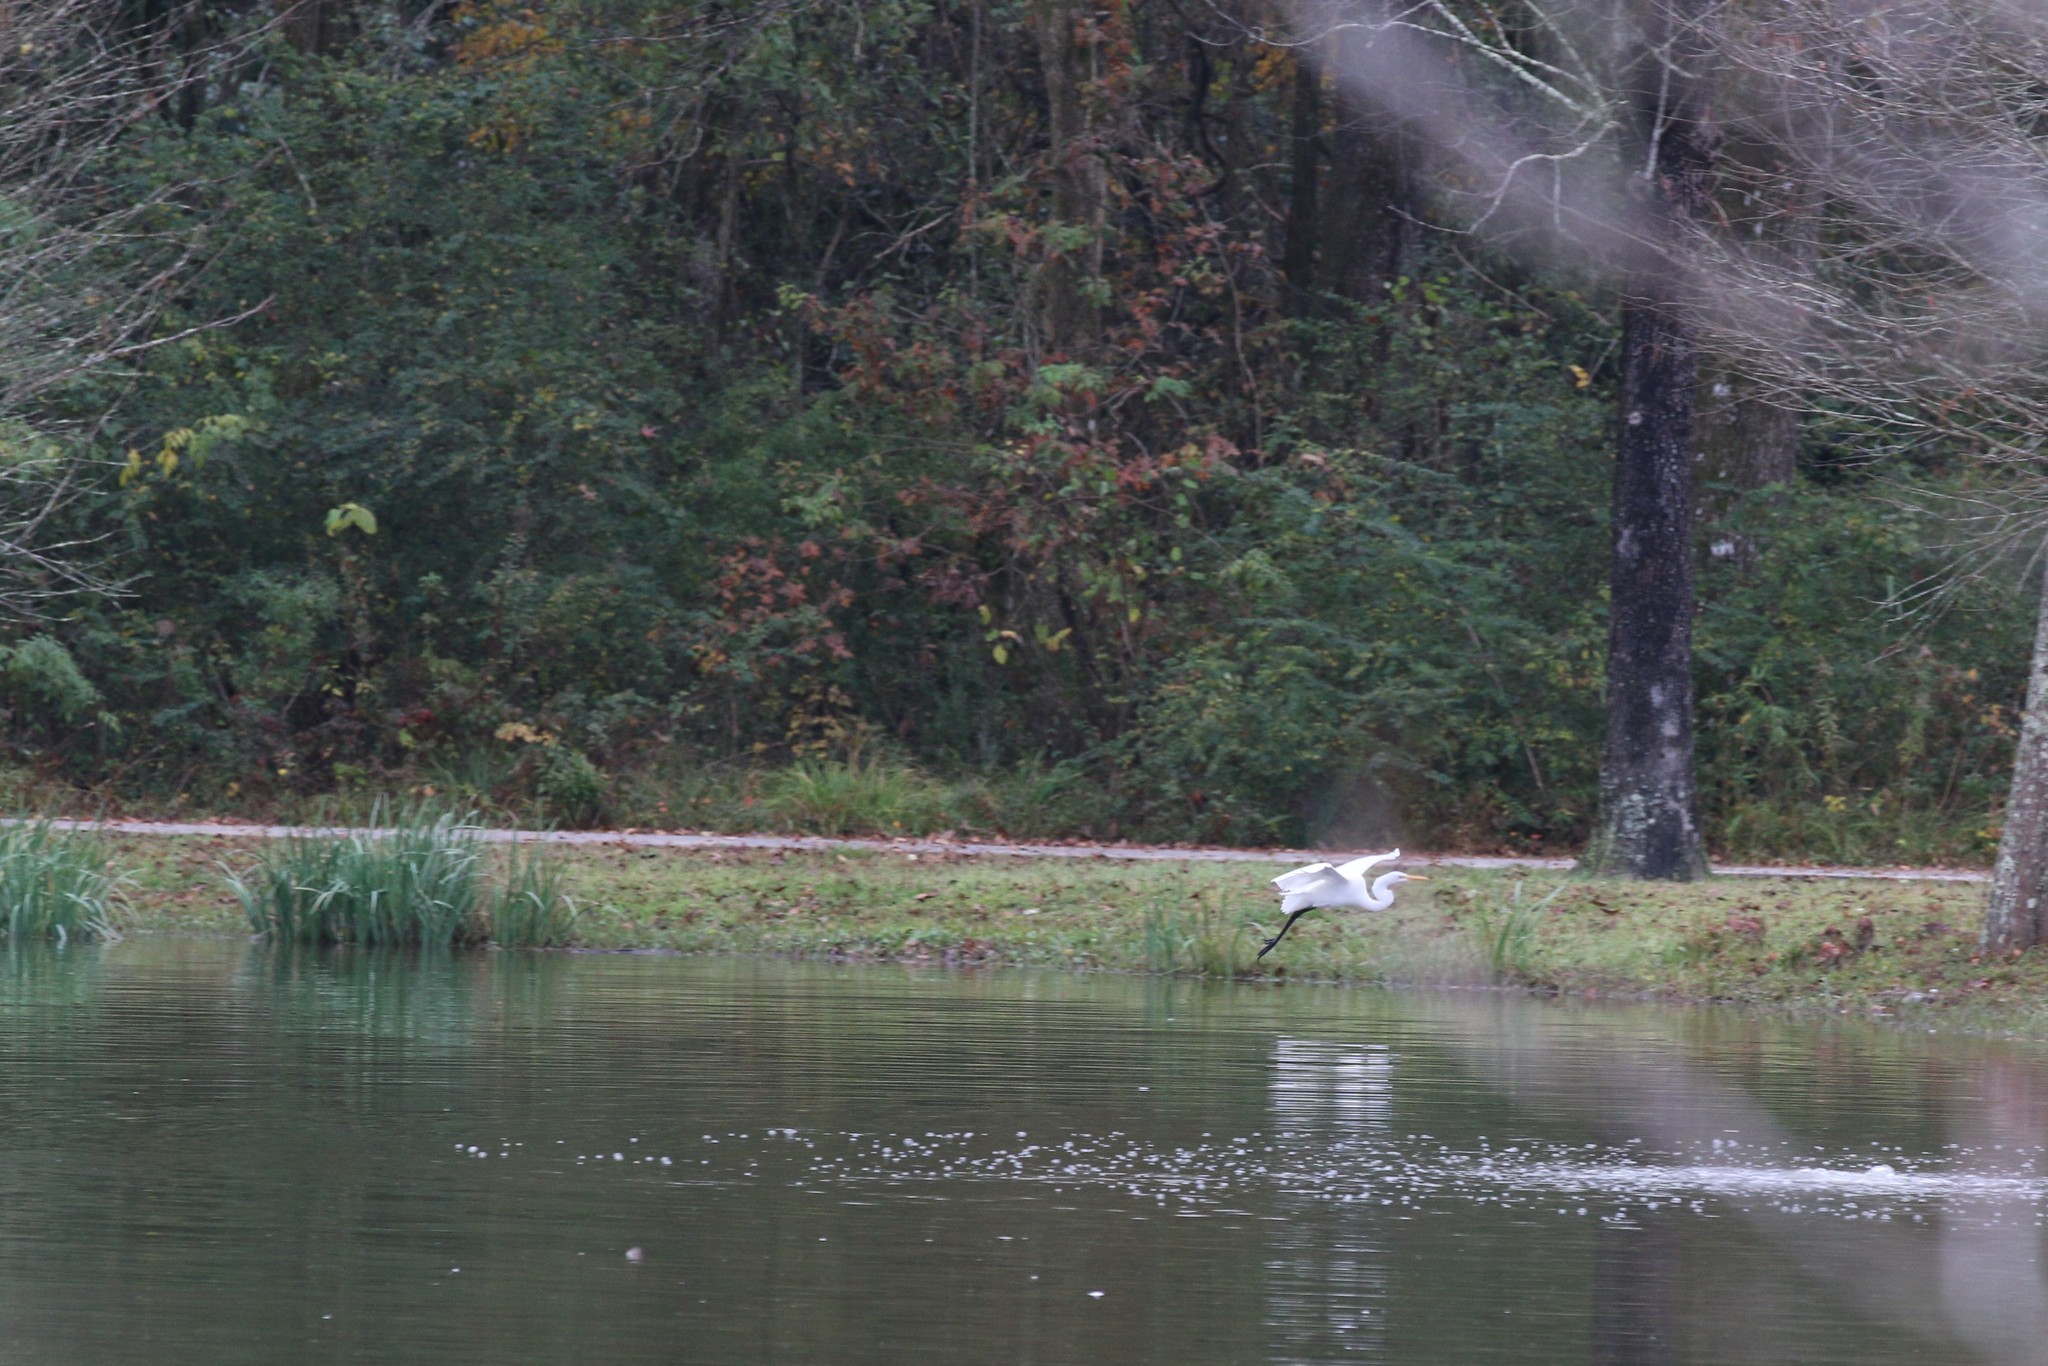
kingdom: Animalia
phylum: Chordata
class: Aves
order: Pelecaniformes
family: Ardeidae
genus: Ardea
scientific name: Ardea alba
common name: Great egret
